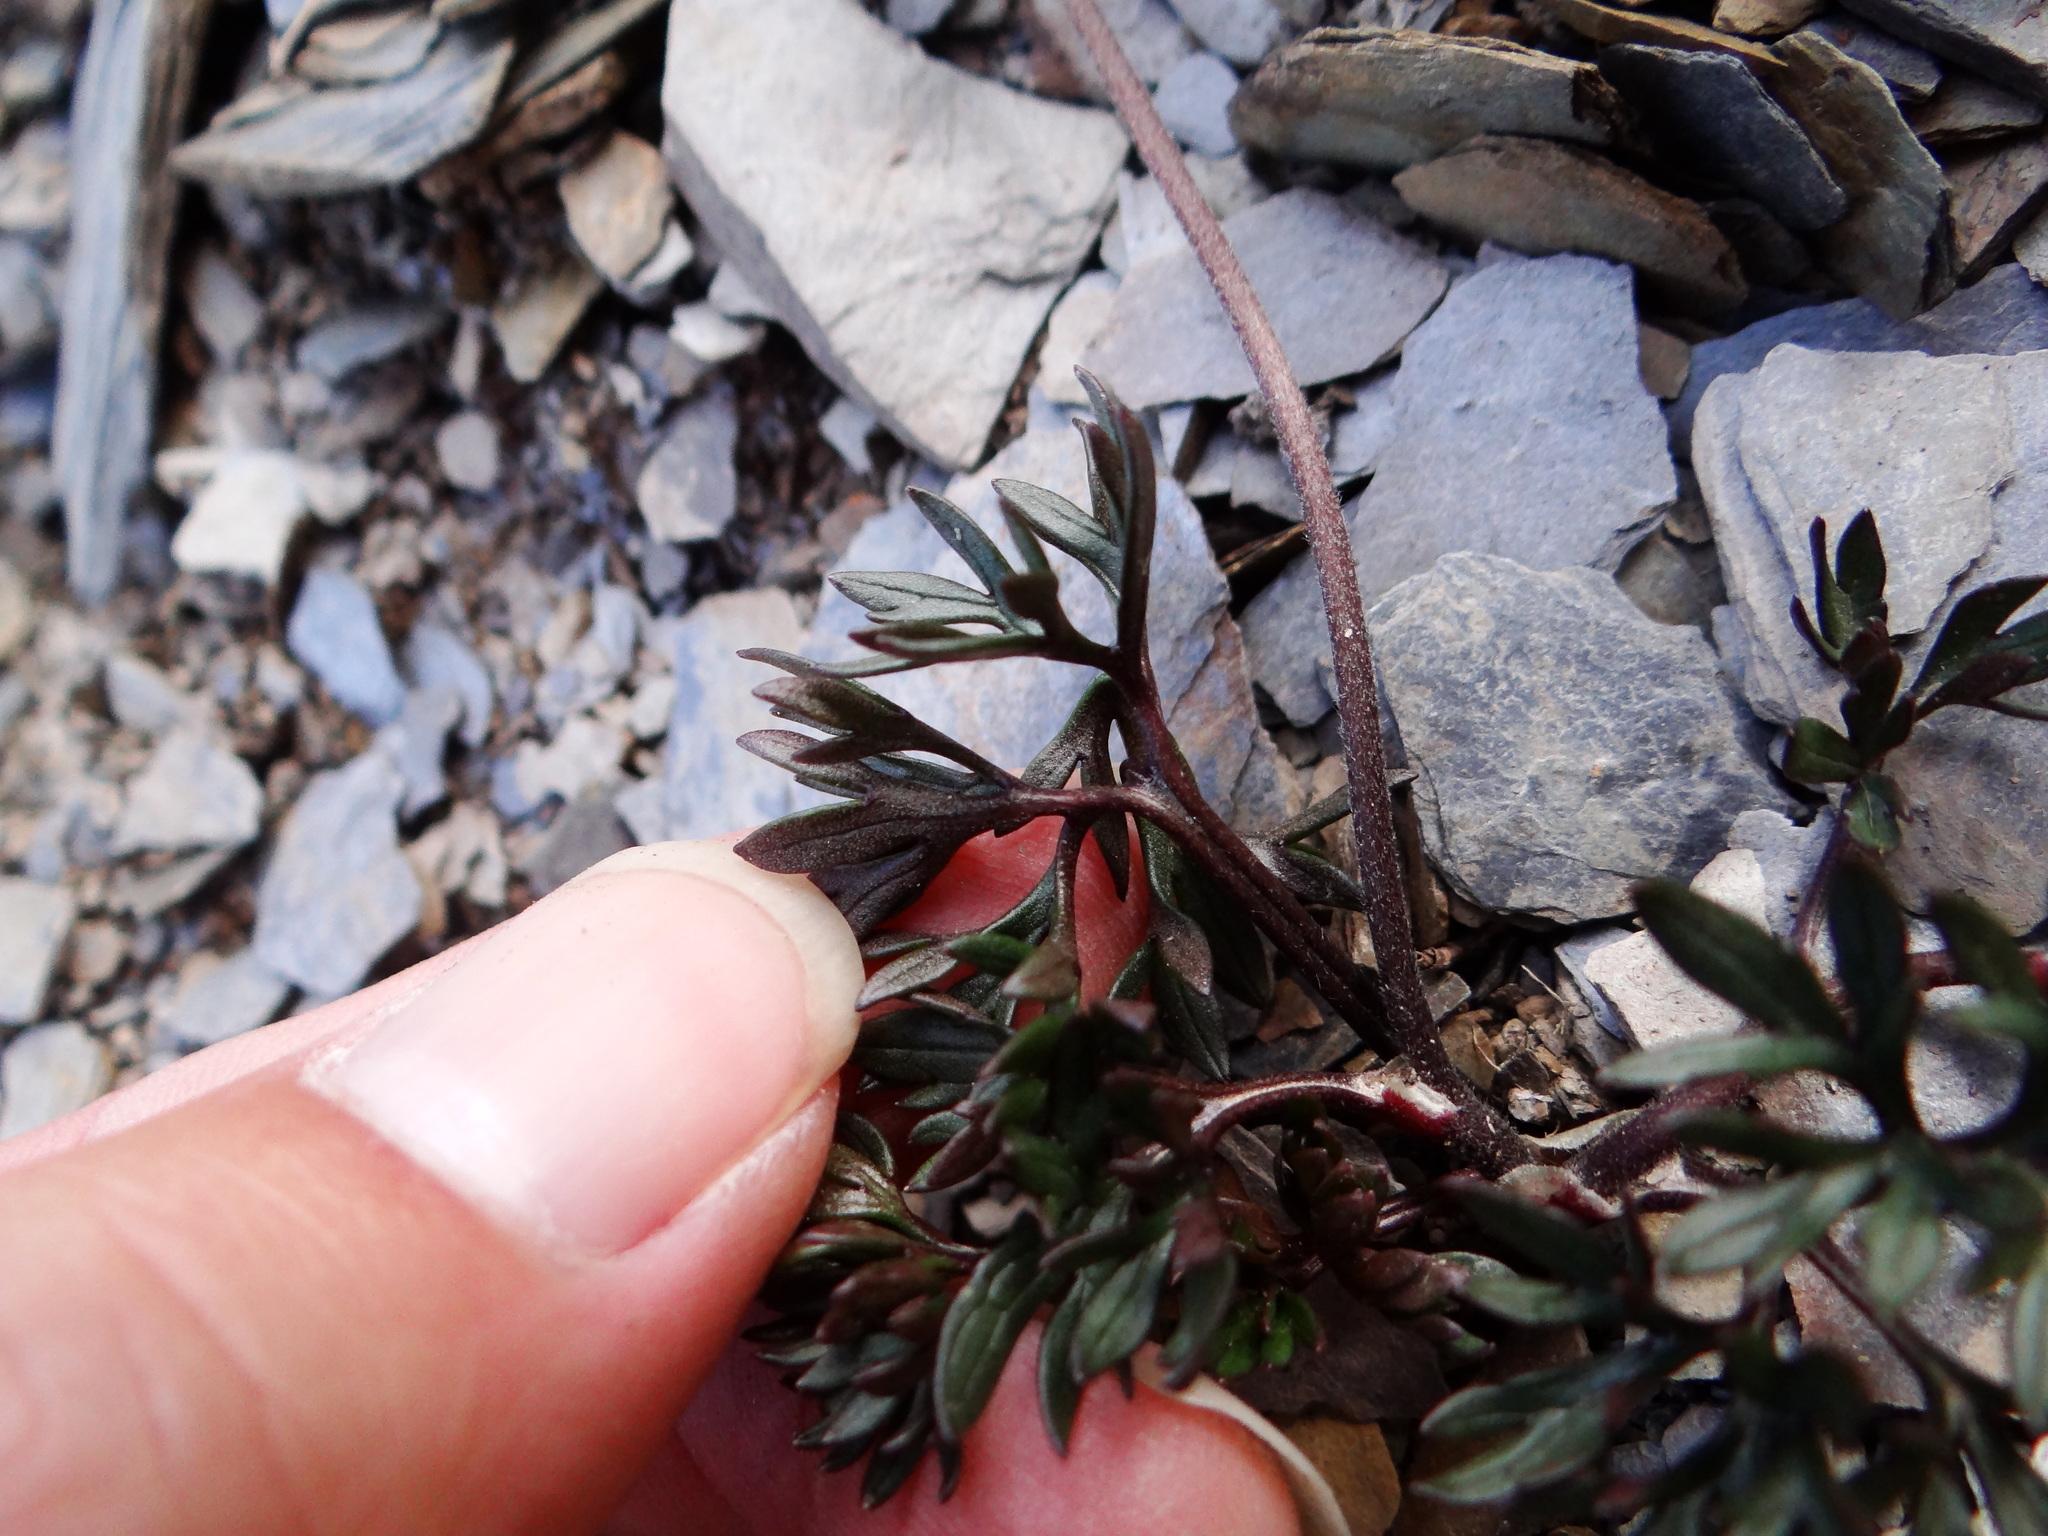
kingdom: Plantae
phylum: Tracheophyta
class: Magnoliopsida
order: Ranunculales
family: Ranunculaceae
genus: Ranunculus
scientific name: Ranunculus morii
